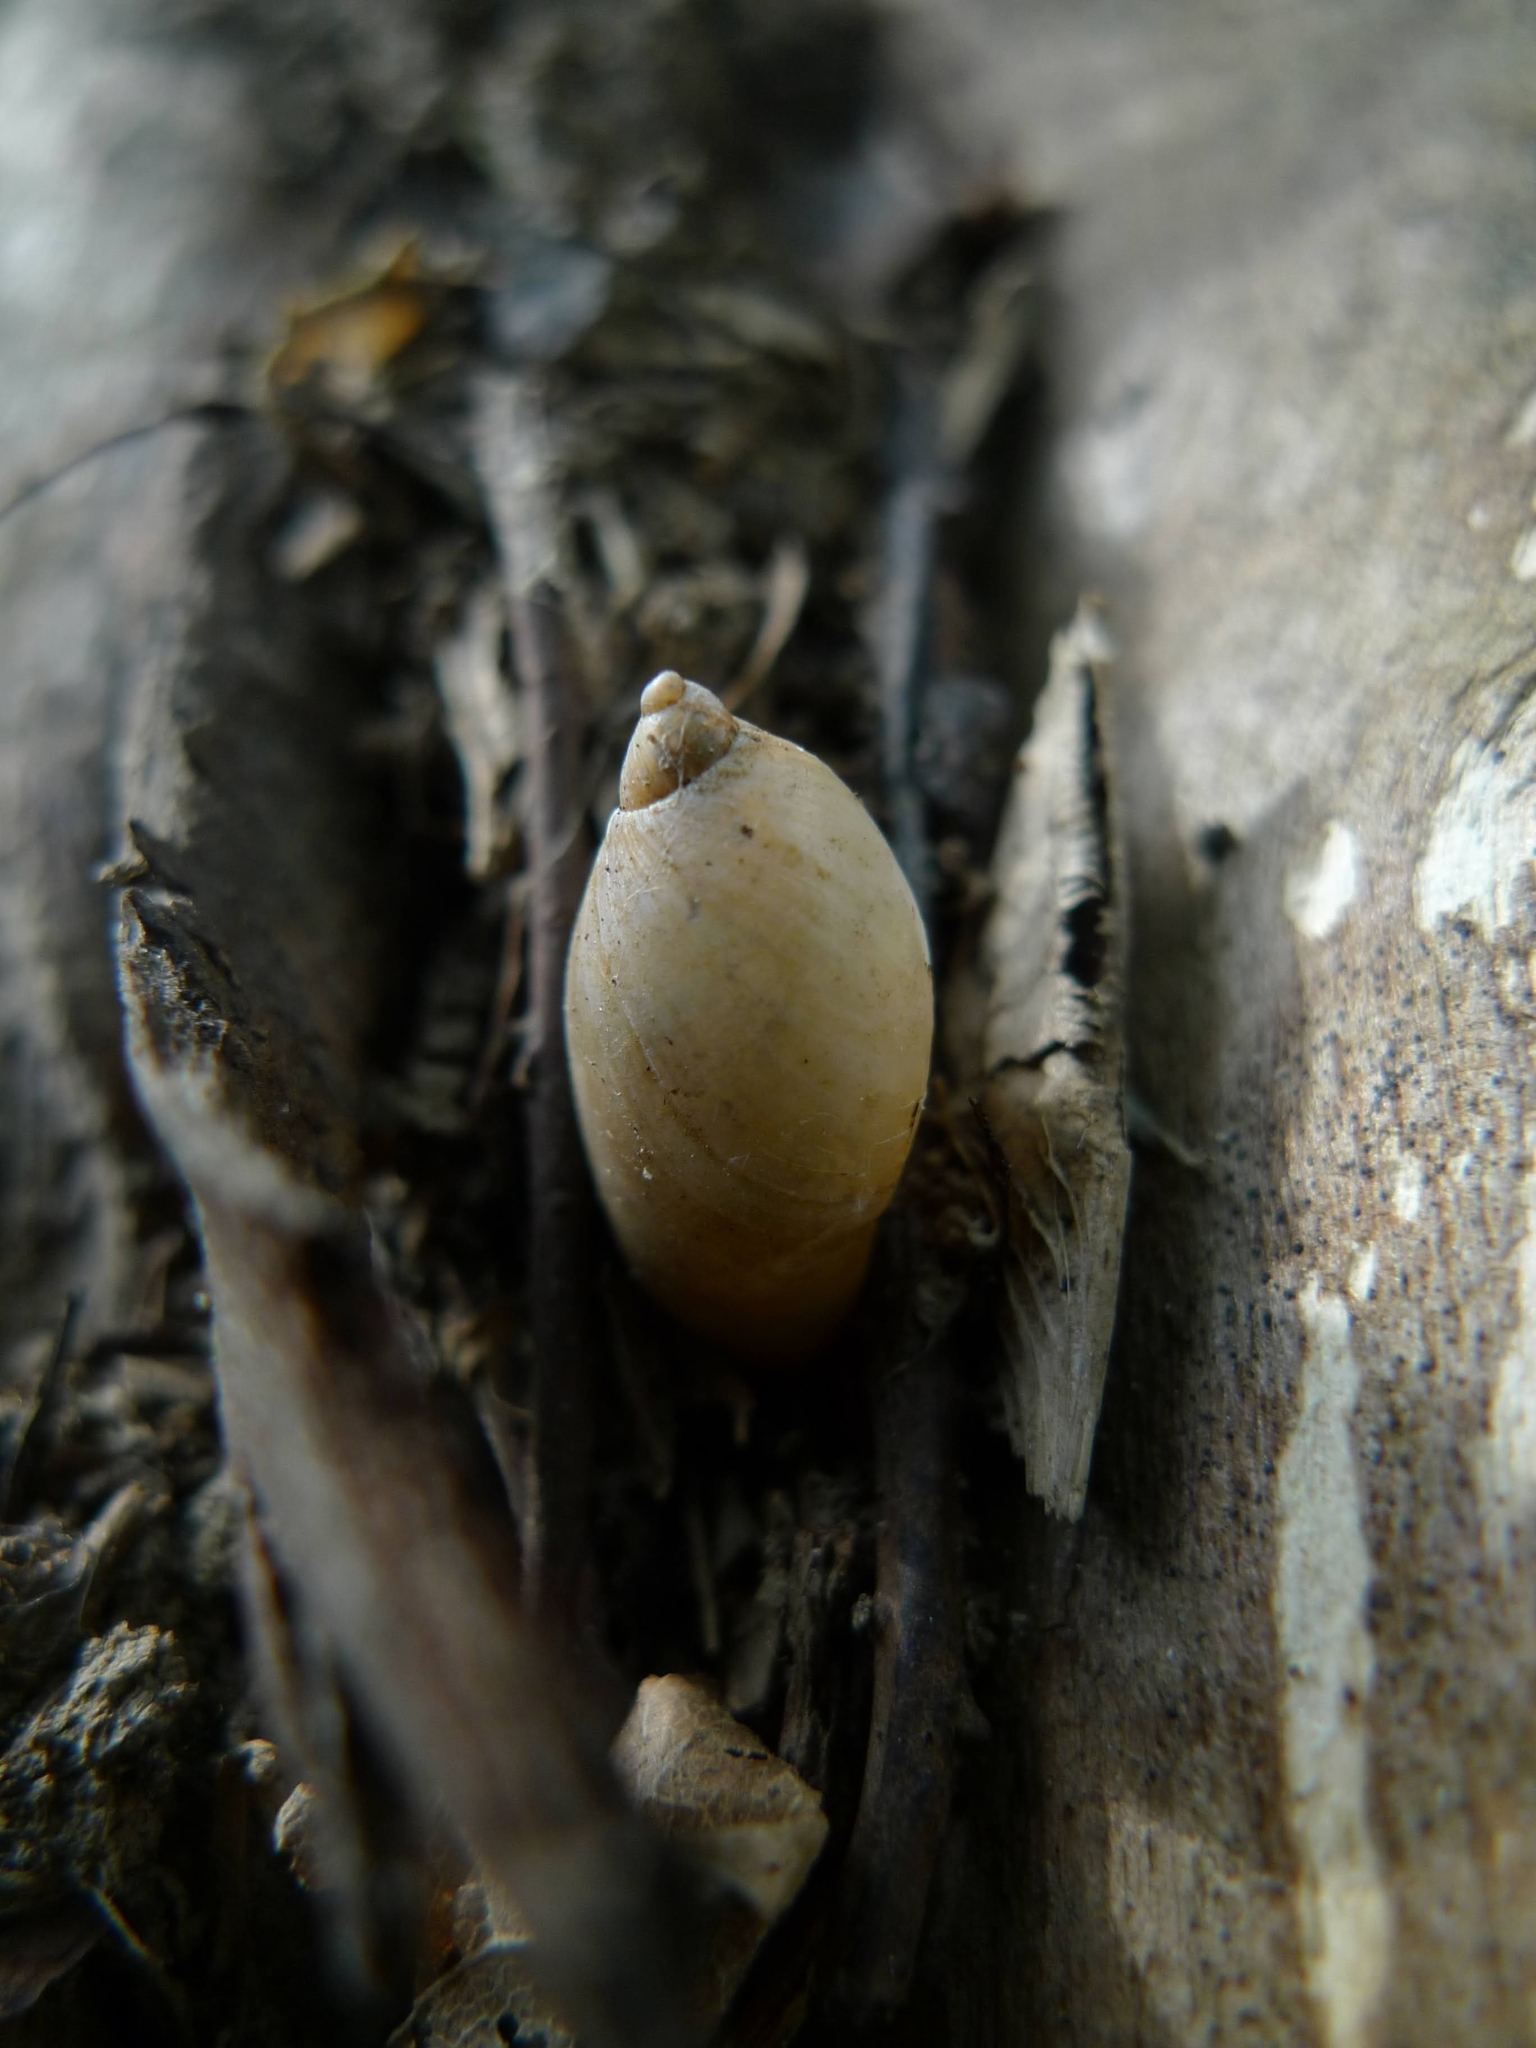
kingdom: Animalia
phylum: Mollusca
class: Gastropoda
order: Stylommatophora
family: Succineidae
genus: Succinea
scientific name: Succinea putris
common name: European ambersnail
